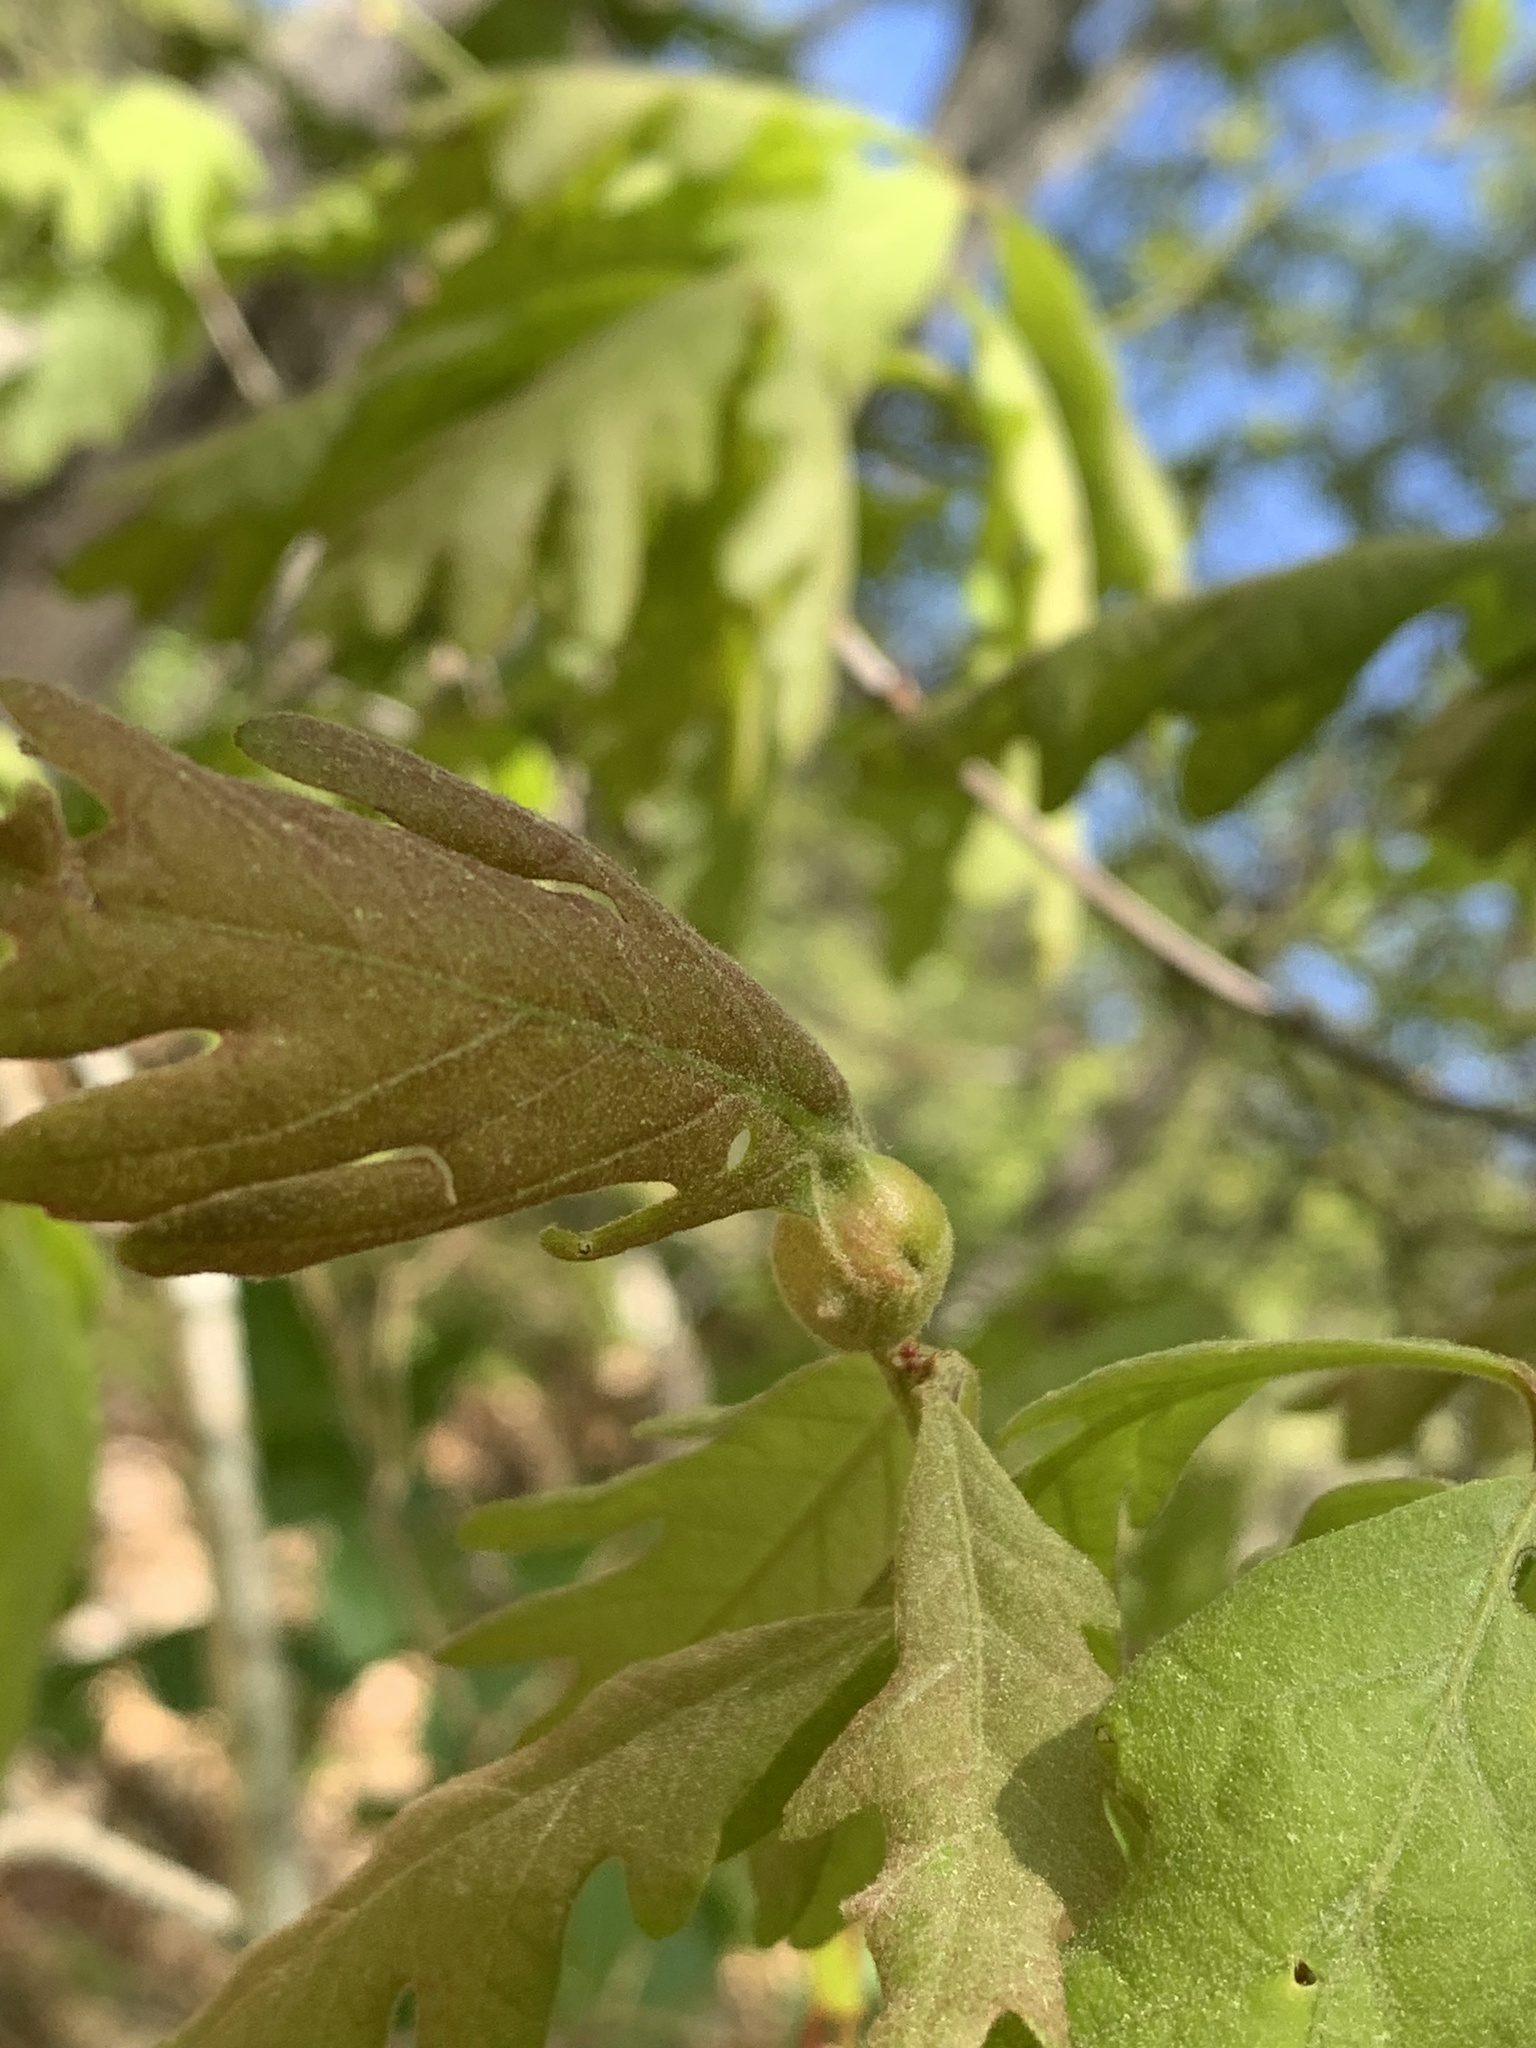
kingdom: Animalia
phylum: Arthropoda
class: Insecta
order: Hymenoptera
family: Cynipidae
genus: Andricus
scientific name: Andricus
